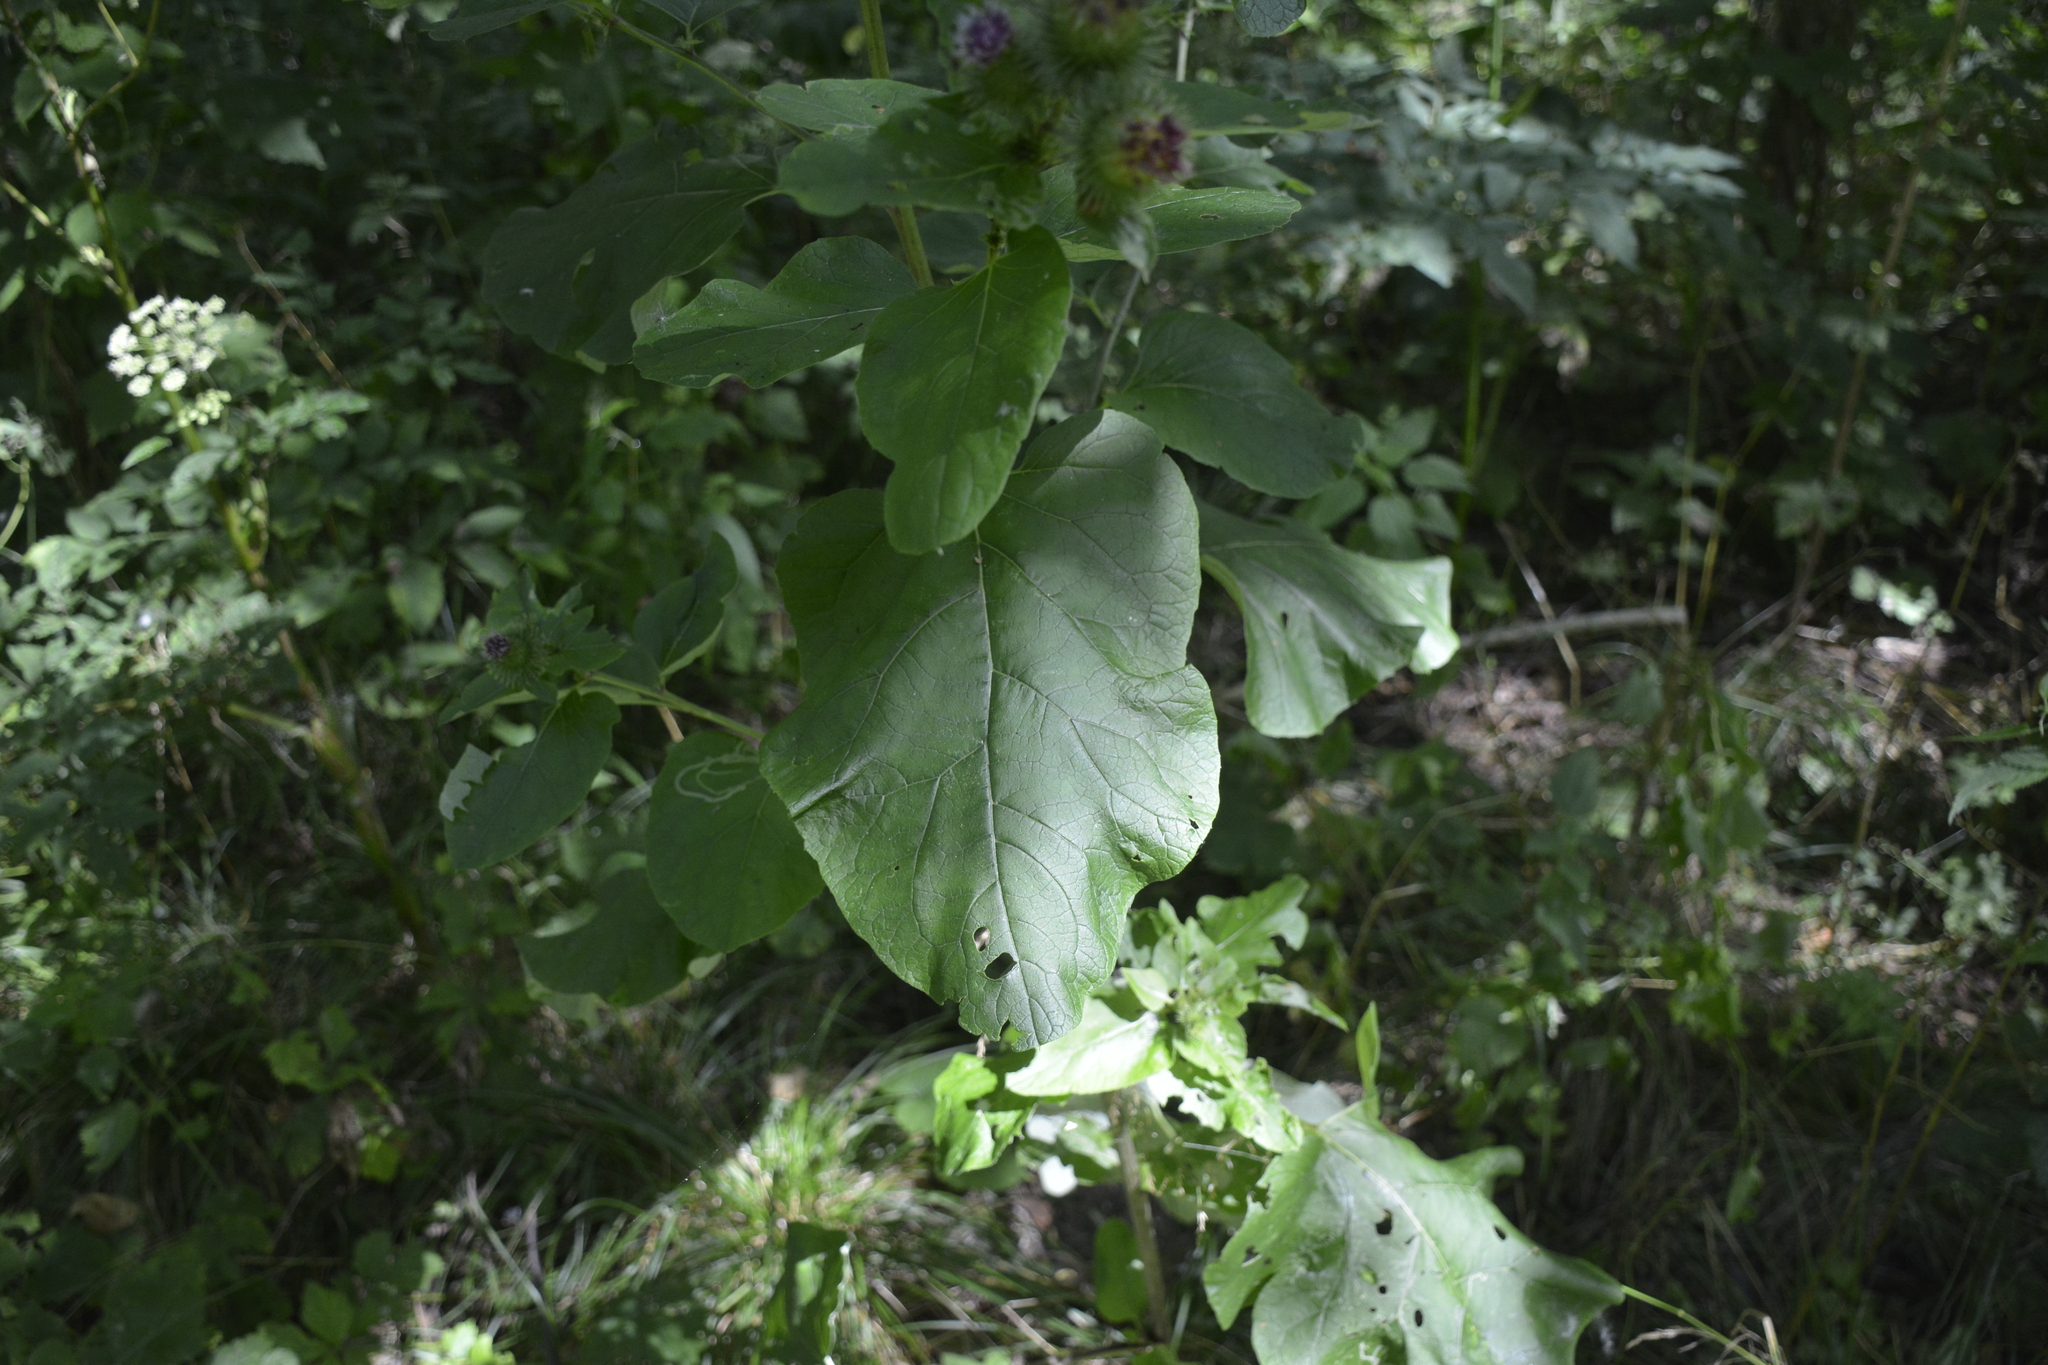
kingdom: Plantae
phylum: Tracheophyta
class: Magnoliopsida
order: Asterales
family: Asteraceae
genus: Arctium
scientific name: Arctium lappa
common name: Greater burdock
